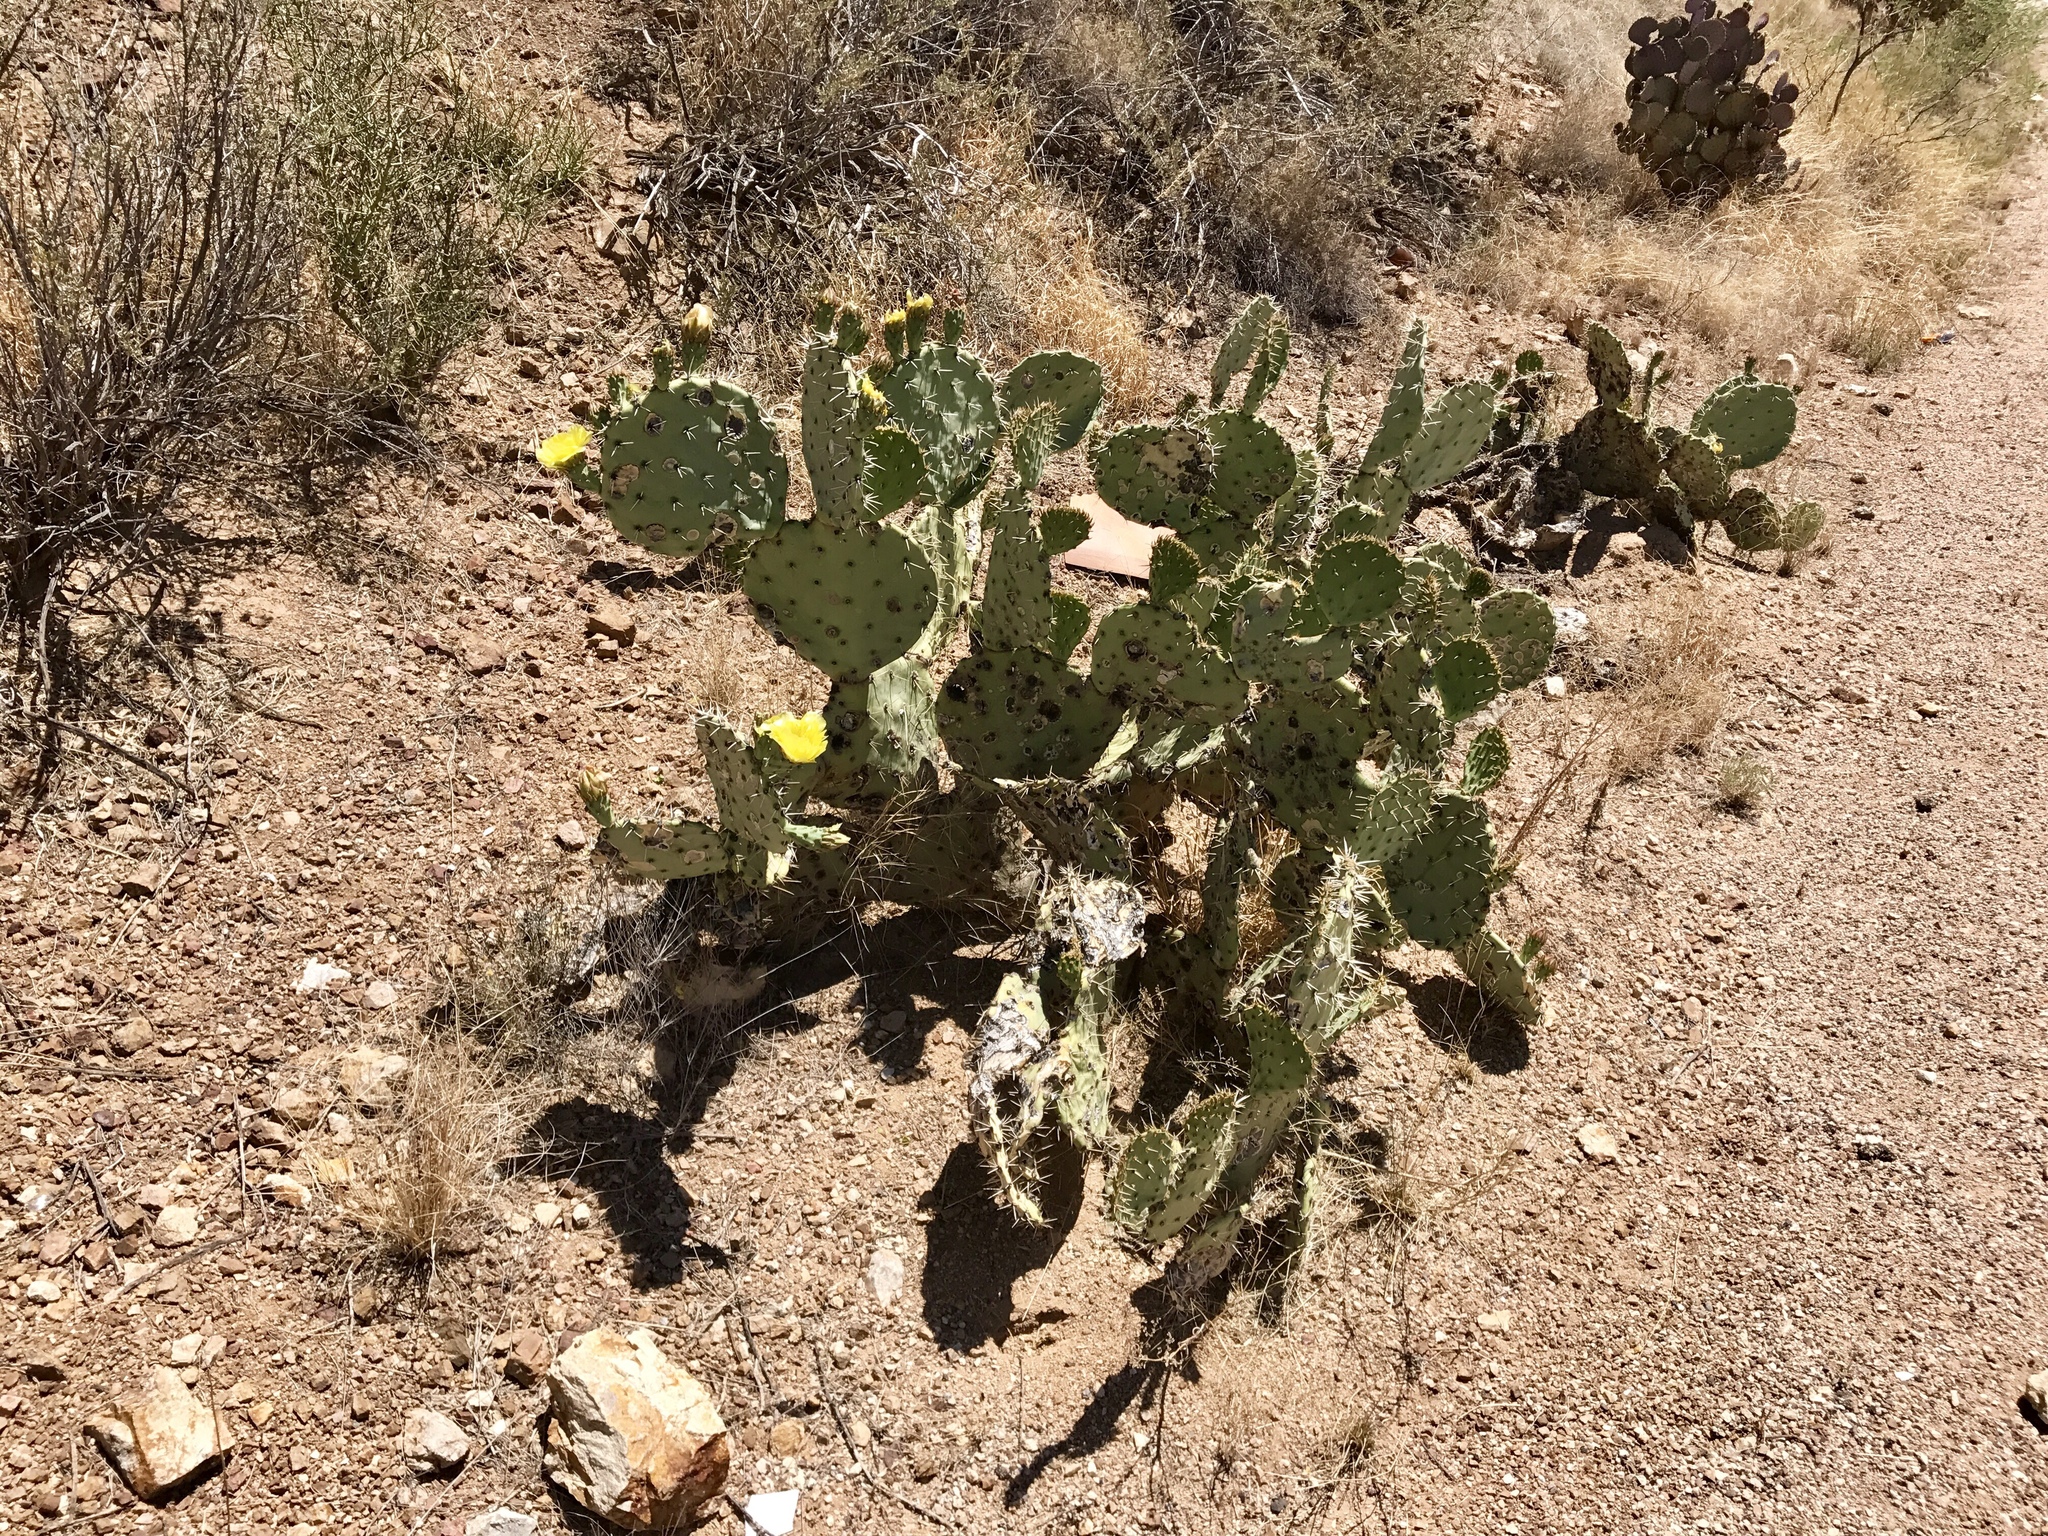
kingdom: Plantae
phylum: Tracheophyta
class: Magnoliopsida
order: Caryophyllales
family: Cactaceae
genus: Opuntia
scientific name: Opuntia engelmannii
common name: Cactus-apple
